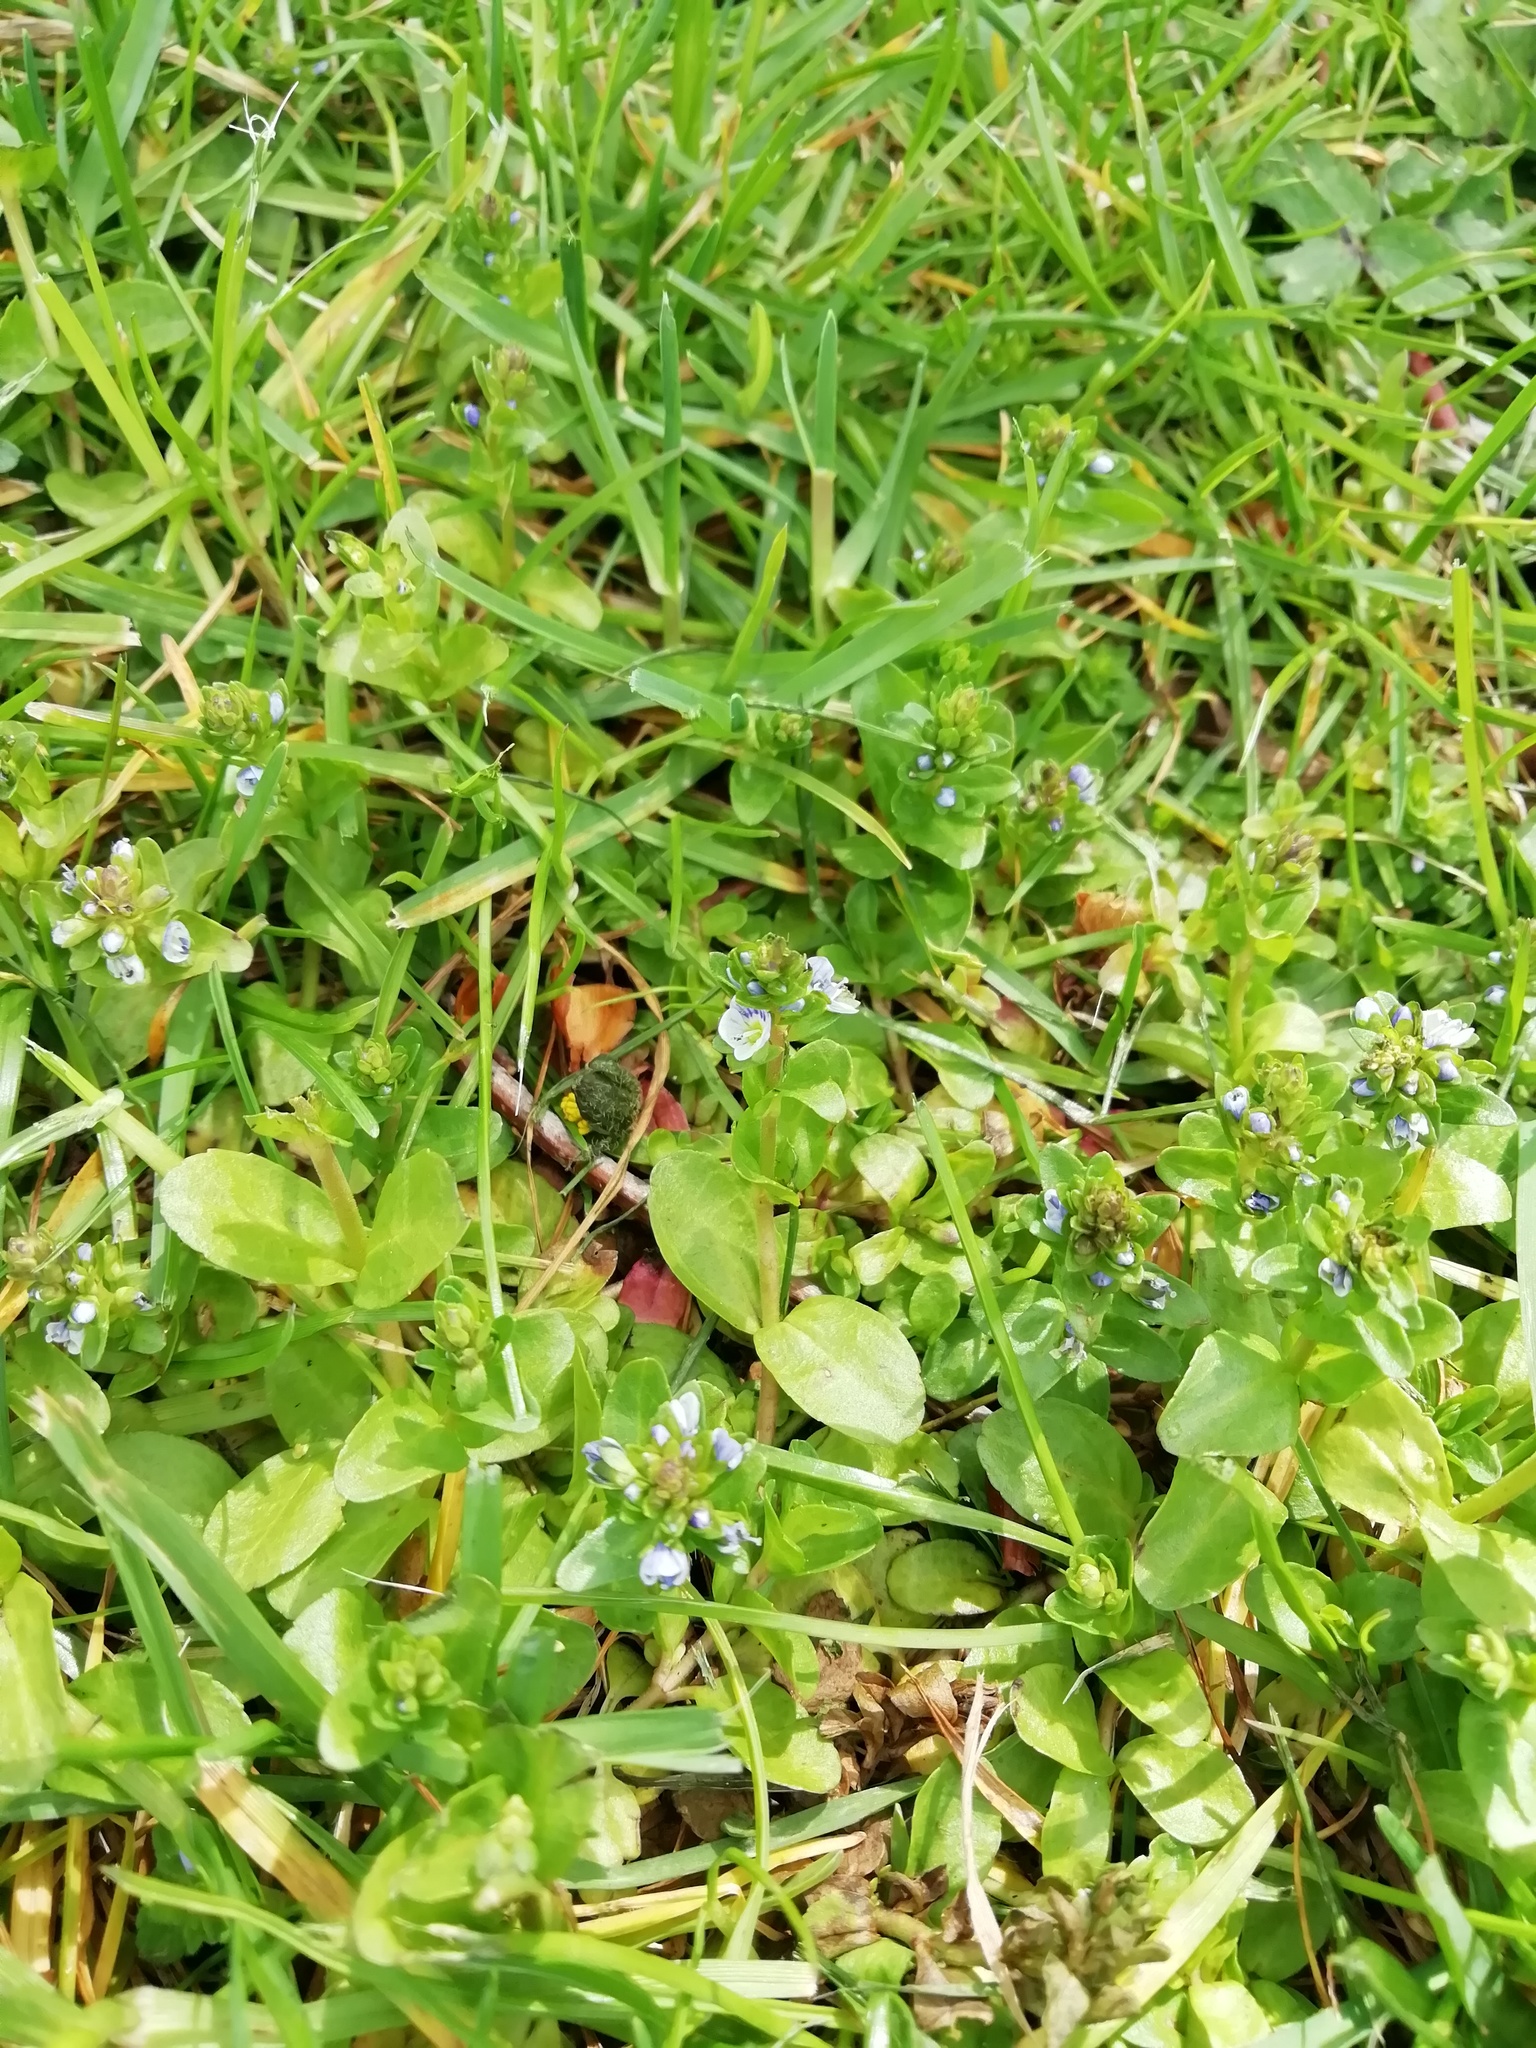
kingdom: Plantae
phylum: Tracheophyta
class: Magnoliopsida
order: Lamiales
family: Plantaginaceae
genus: Veronica
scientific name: Veronica serpyllifolia
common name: Thyme-leaved speedwell
